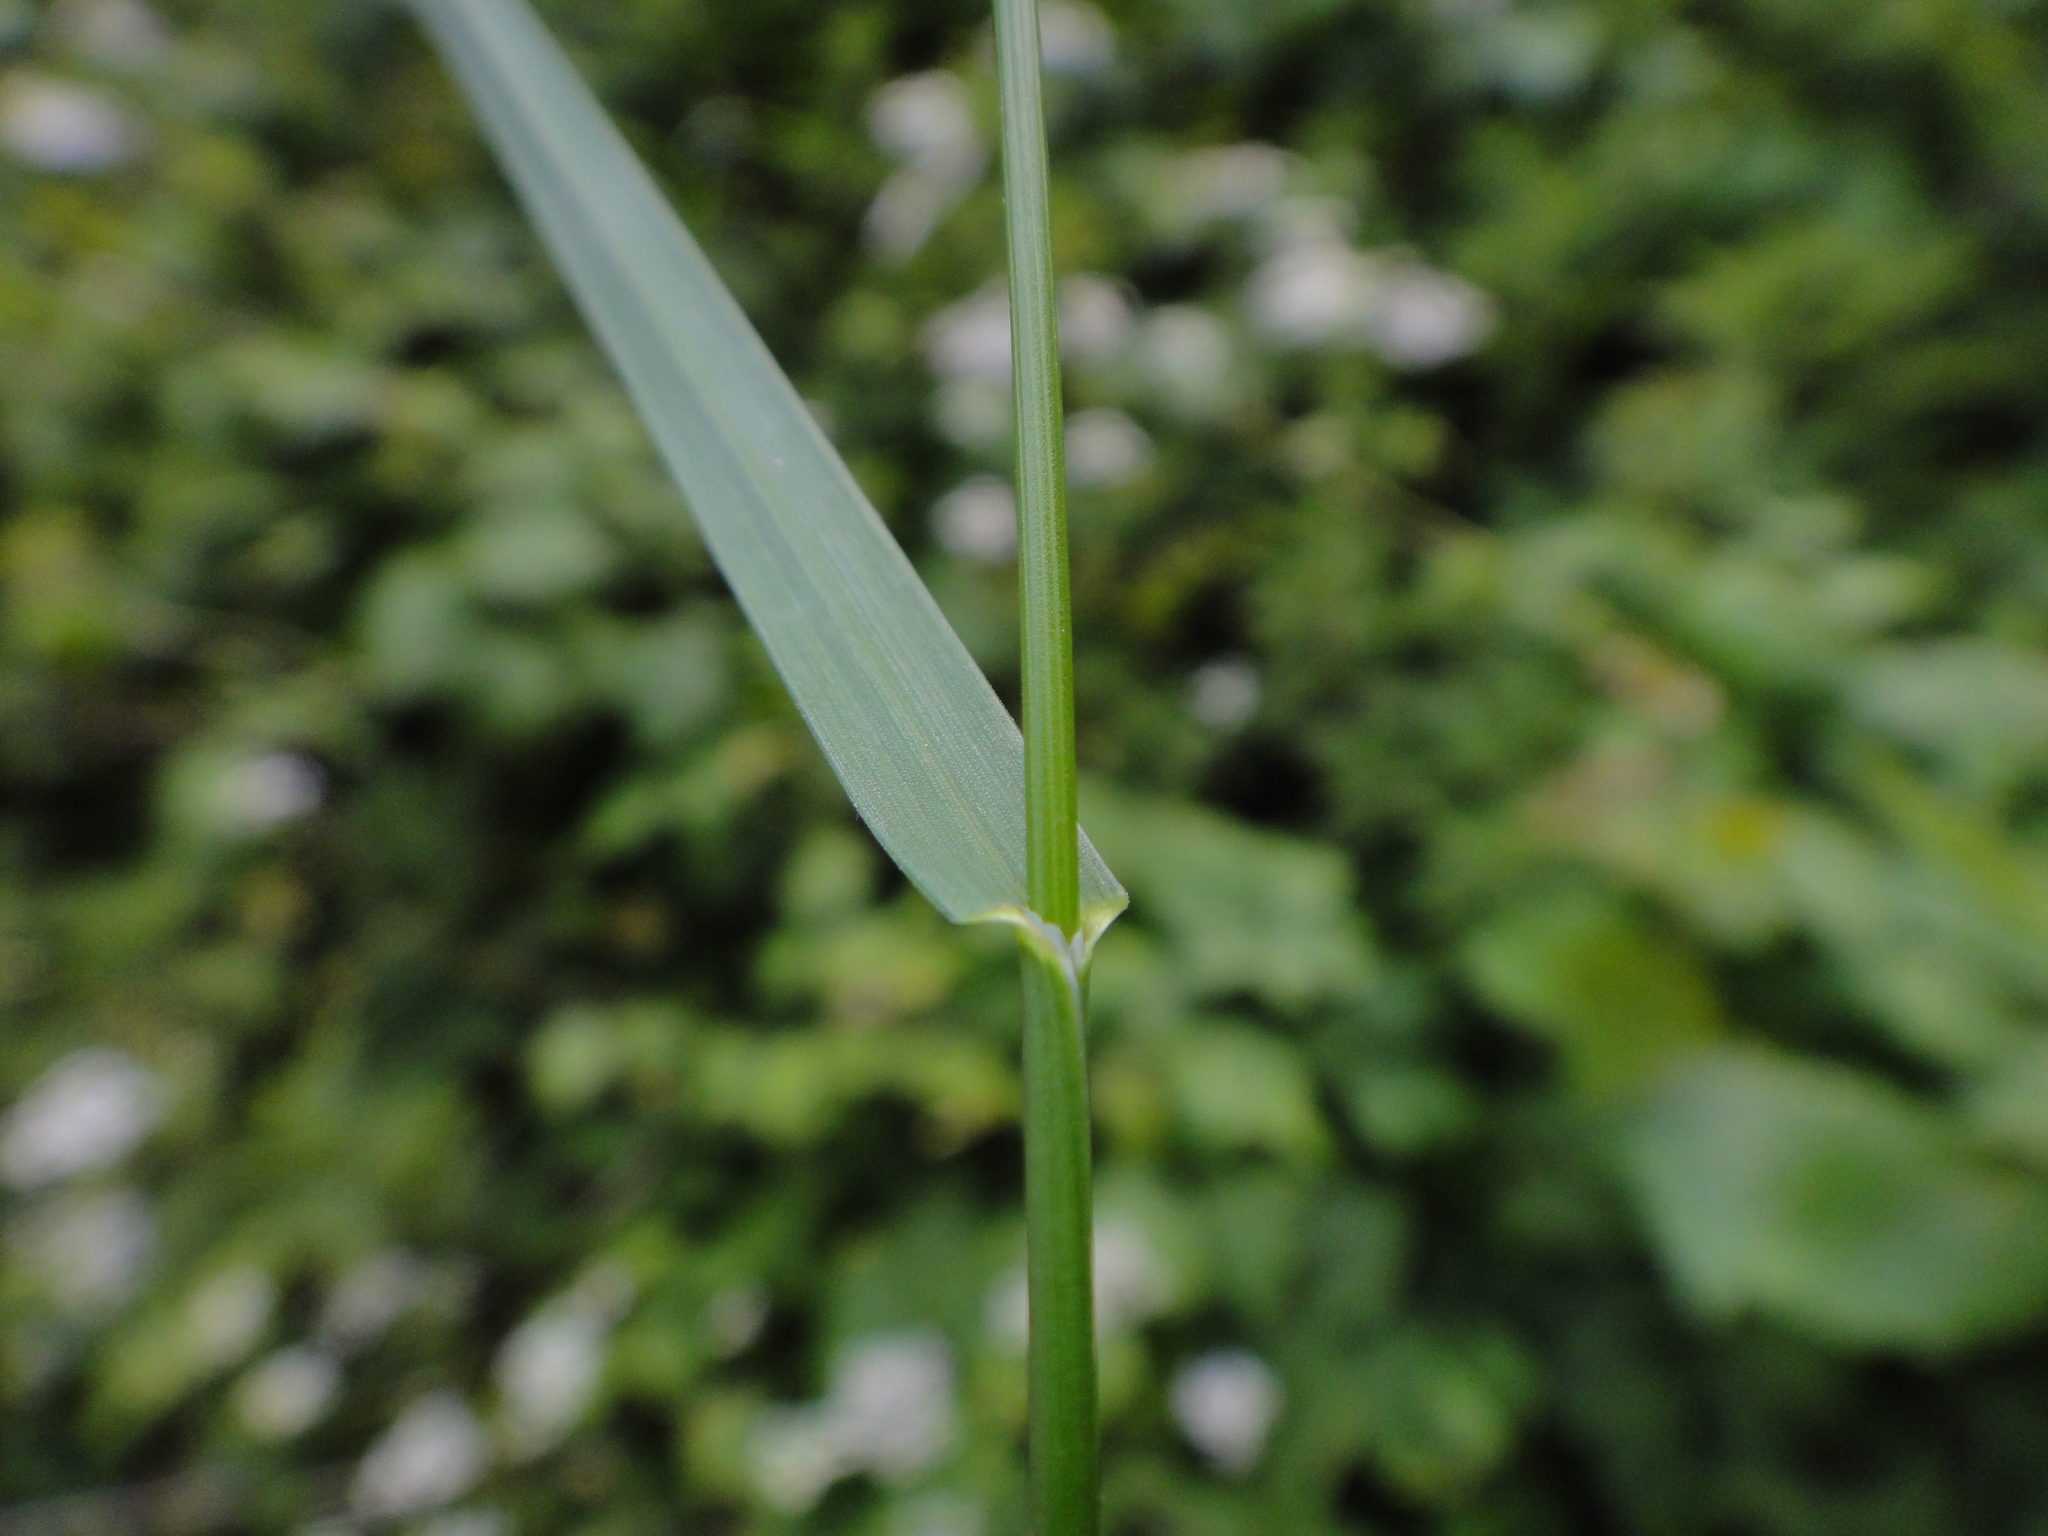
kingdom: Plantae
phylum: Tracheophyta
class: Liliopsida
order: Poales
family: Poaceae
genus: Poa
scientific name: Poa nemoralis
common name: Wood bluegrass
